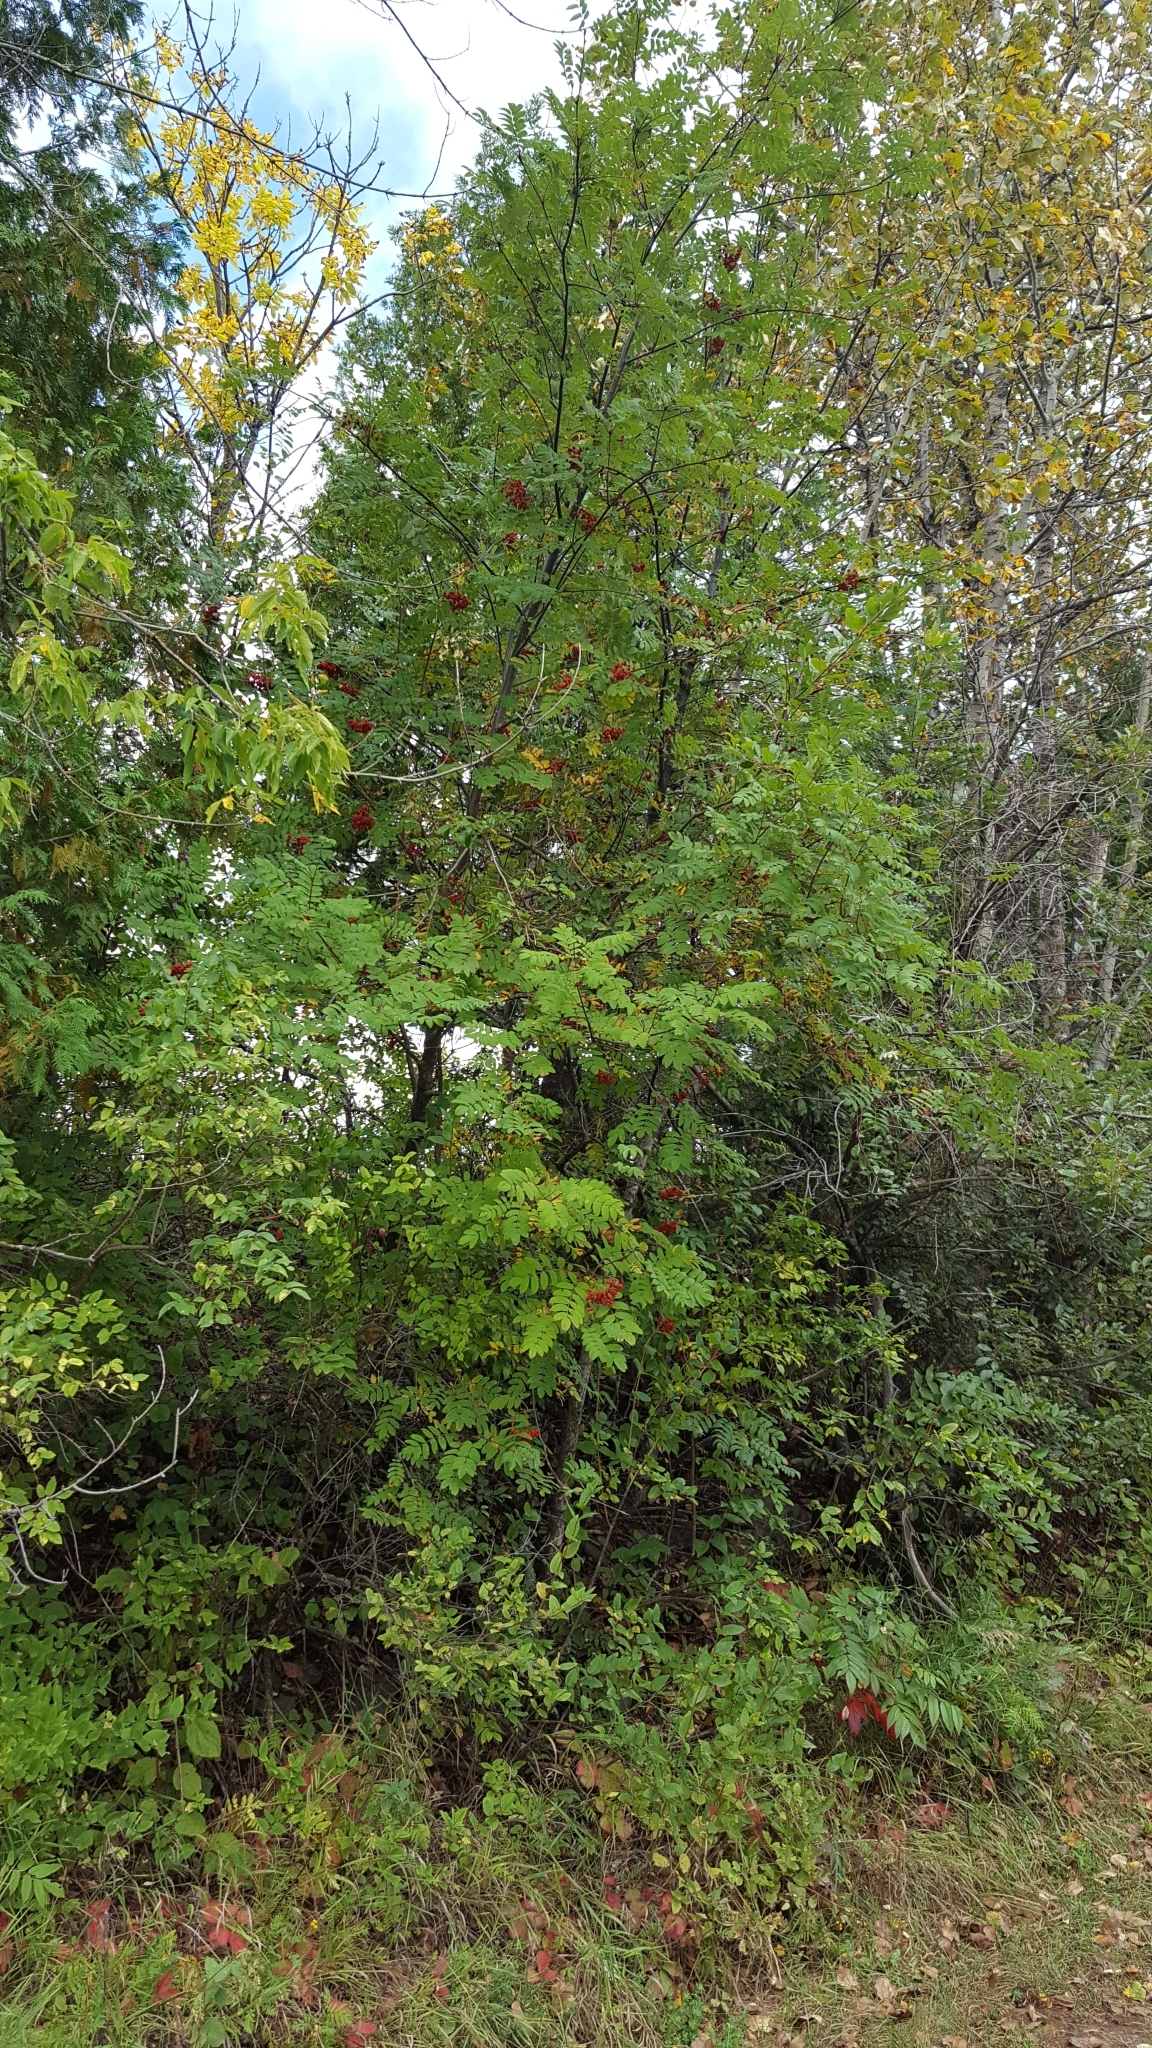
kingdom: Plantae
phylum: Tracheophyta
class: Magnoliopsida
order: Rosales
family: Rosaceae
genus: Sorbus
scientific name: Sorbus decora
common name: Northern mountain-ash
